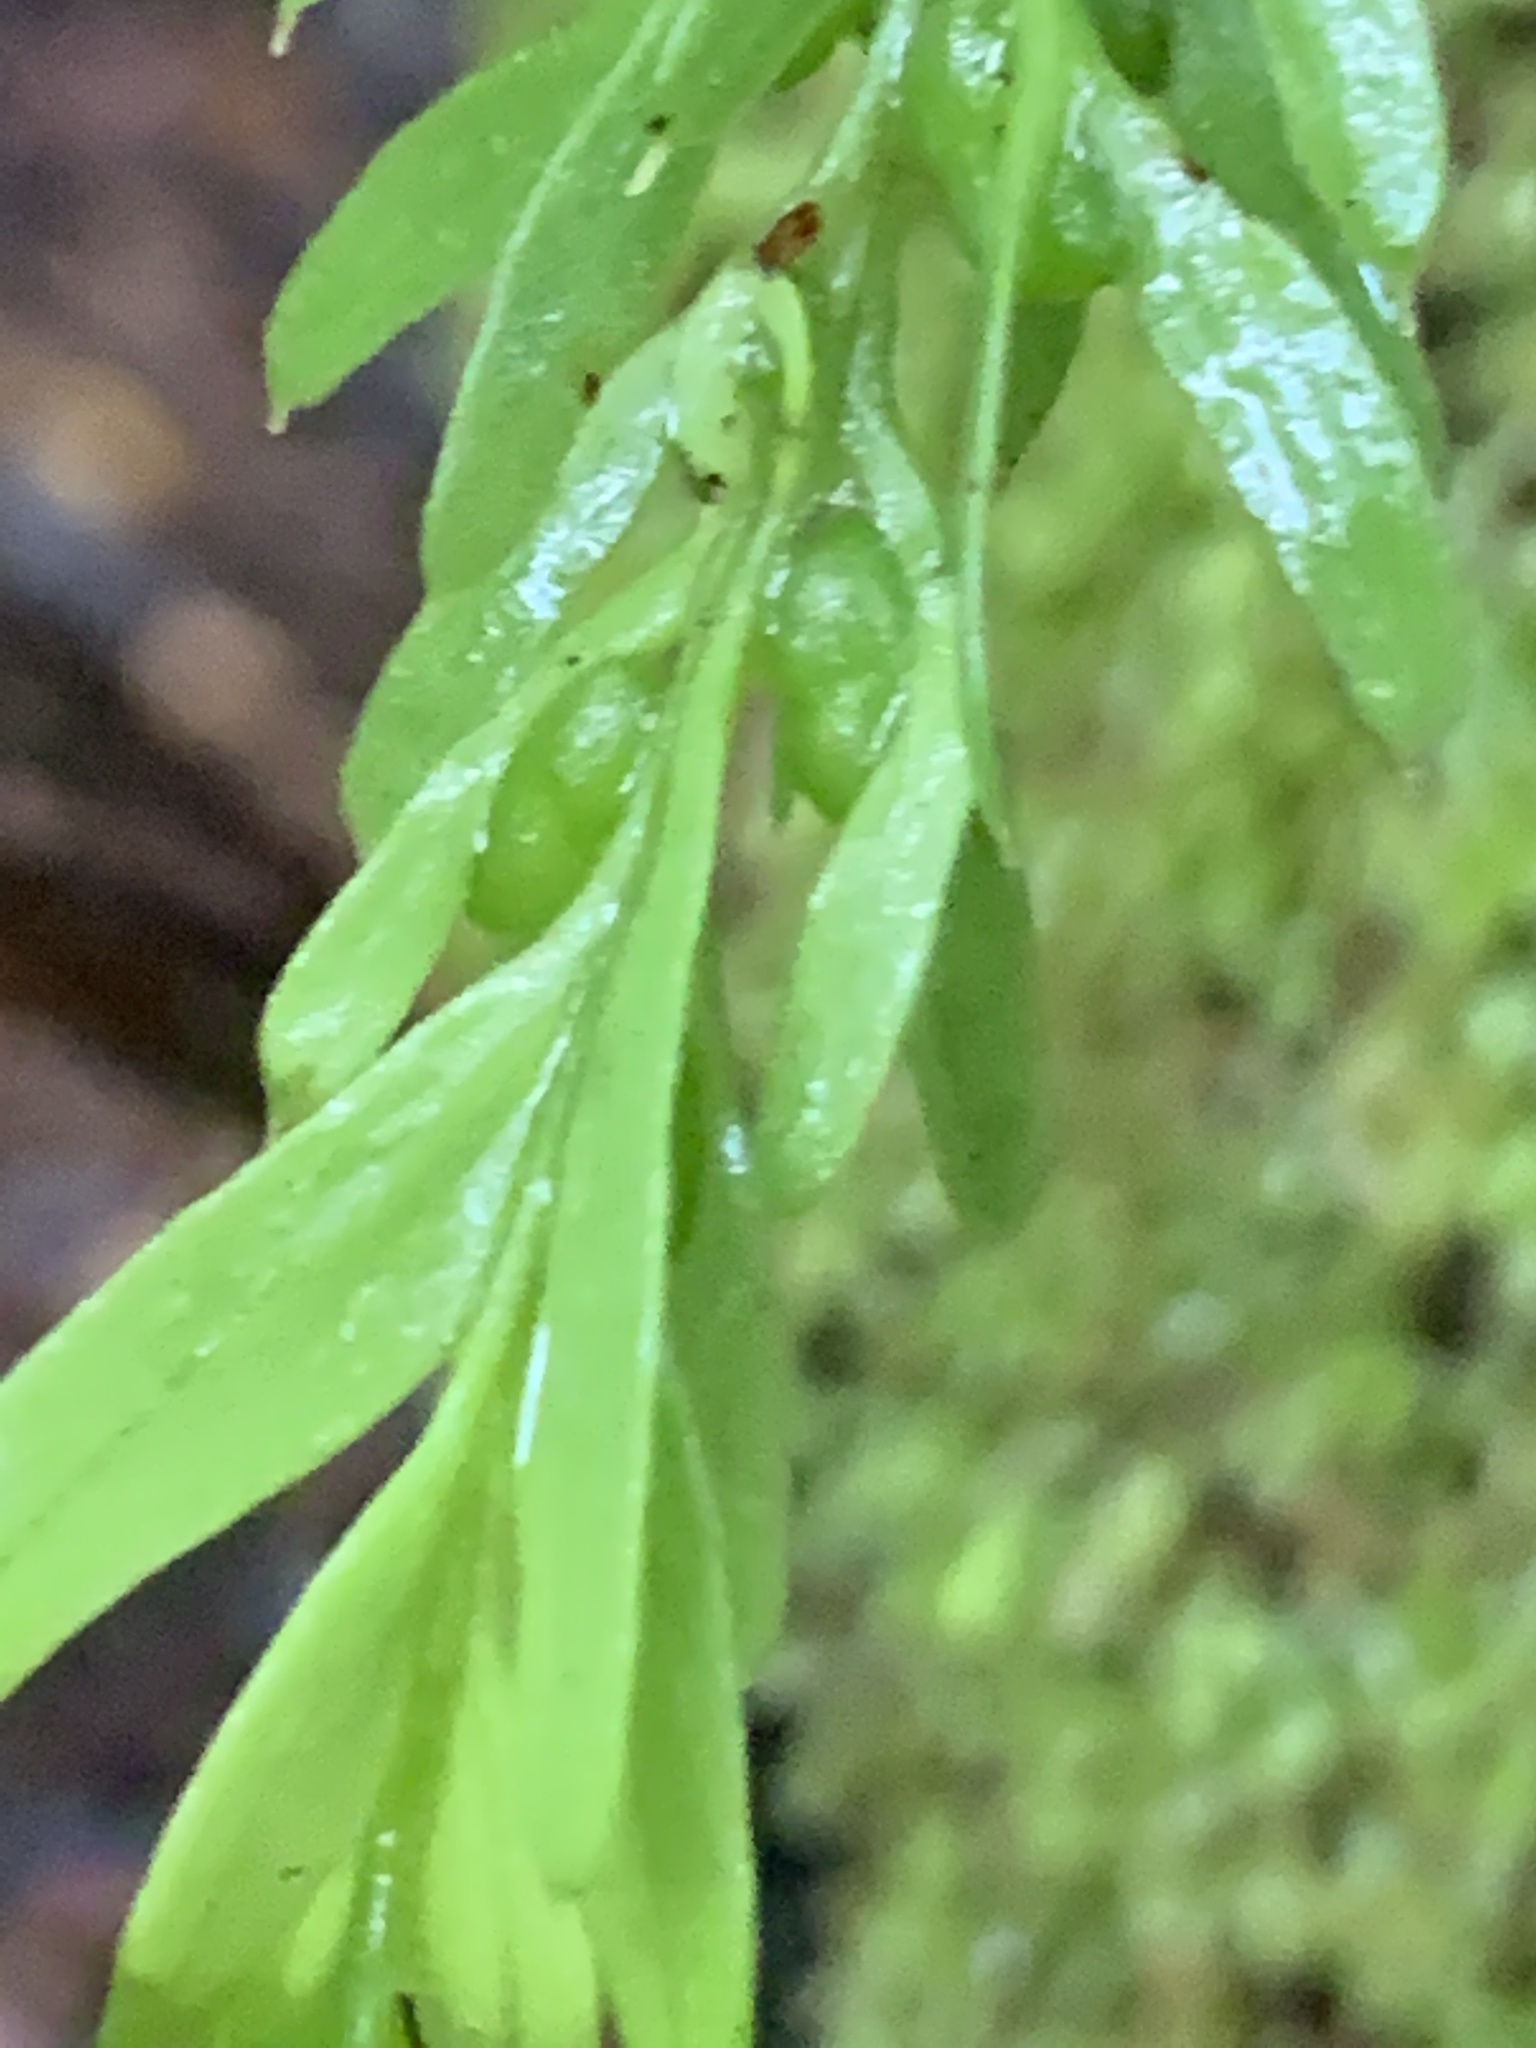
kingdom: Plantae
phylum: Tracheophyta
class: Polypodiopsida
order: Psilotales
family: Psilotaceae
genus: Tmesipteris
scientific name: Tmesipteris elongata
